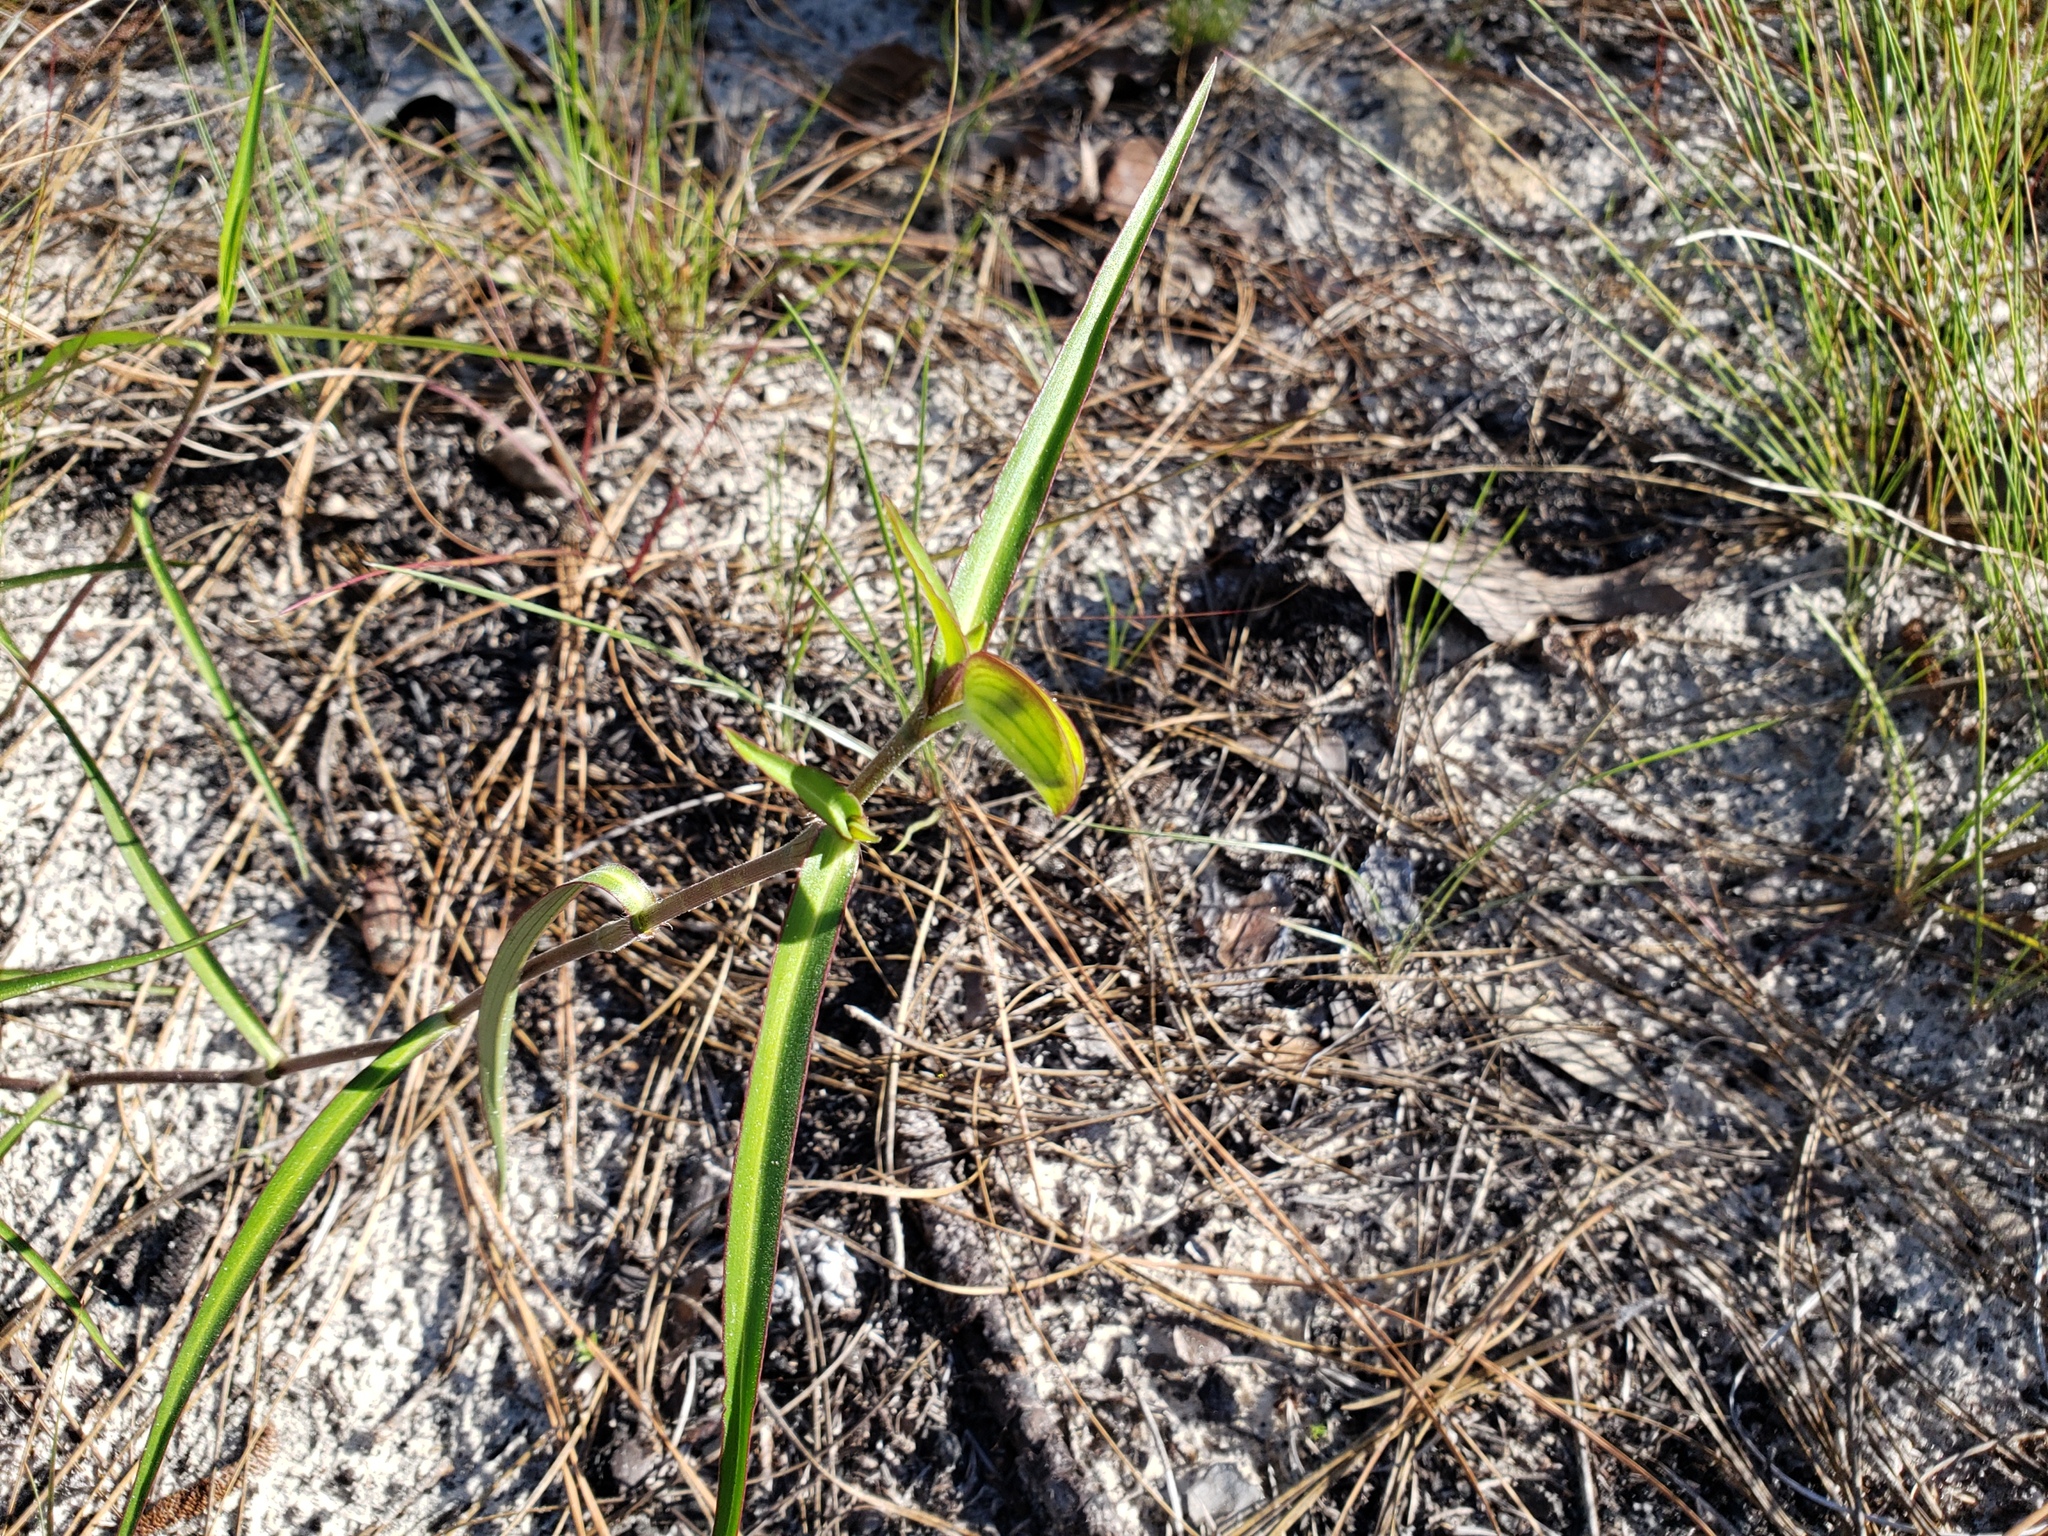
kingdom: Plantae
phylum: Tracheophyta
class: Liliopsida
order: Commelinales
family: Commelinaceae
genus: Commelina
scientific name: Commelina erecta
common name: Blousel blommetjie
